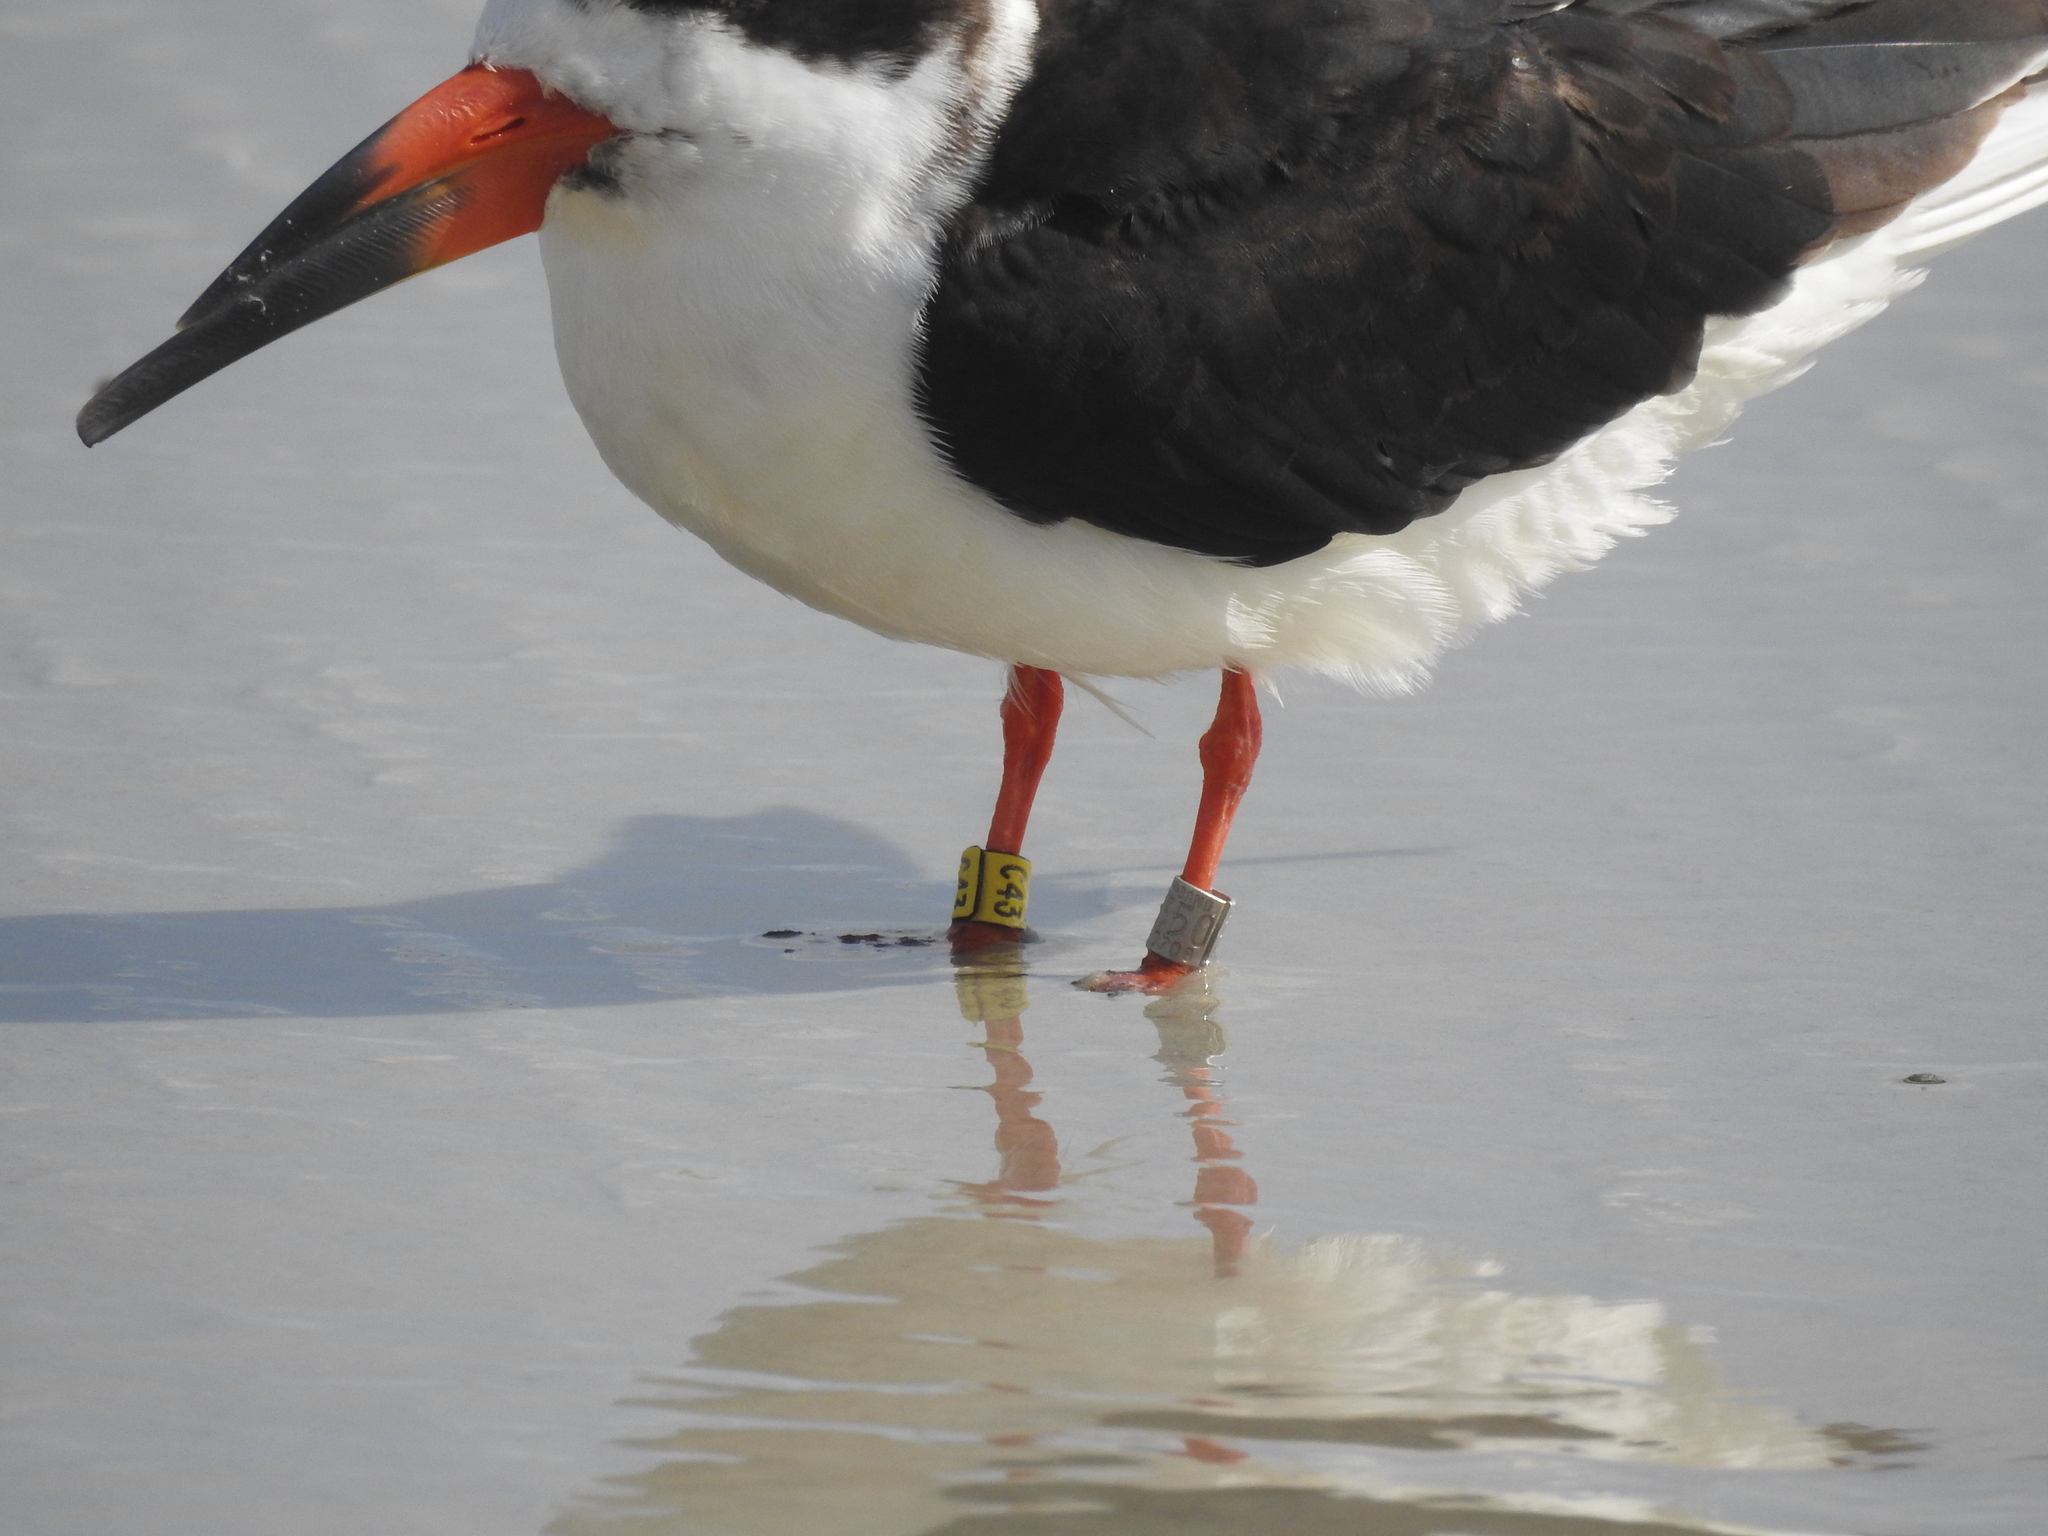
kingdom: Animalia
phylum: Chordata
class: Aves
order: Charadriiformes
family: Laridae
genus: Rynchops
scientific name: Rynchops niger
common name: Black skimmer
